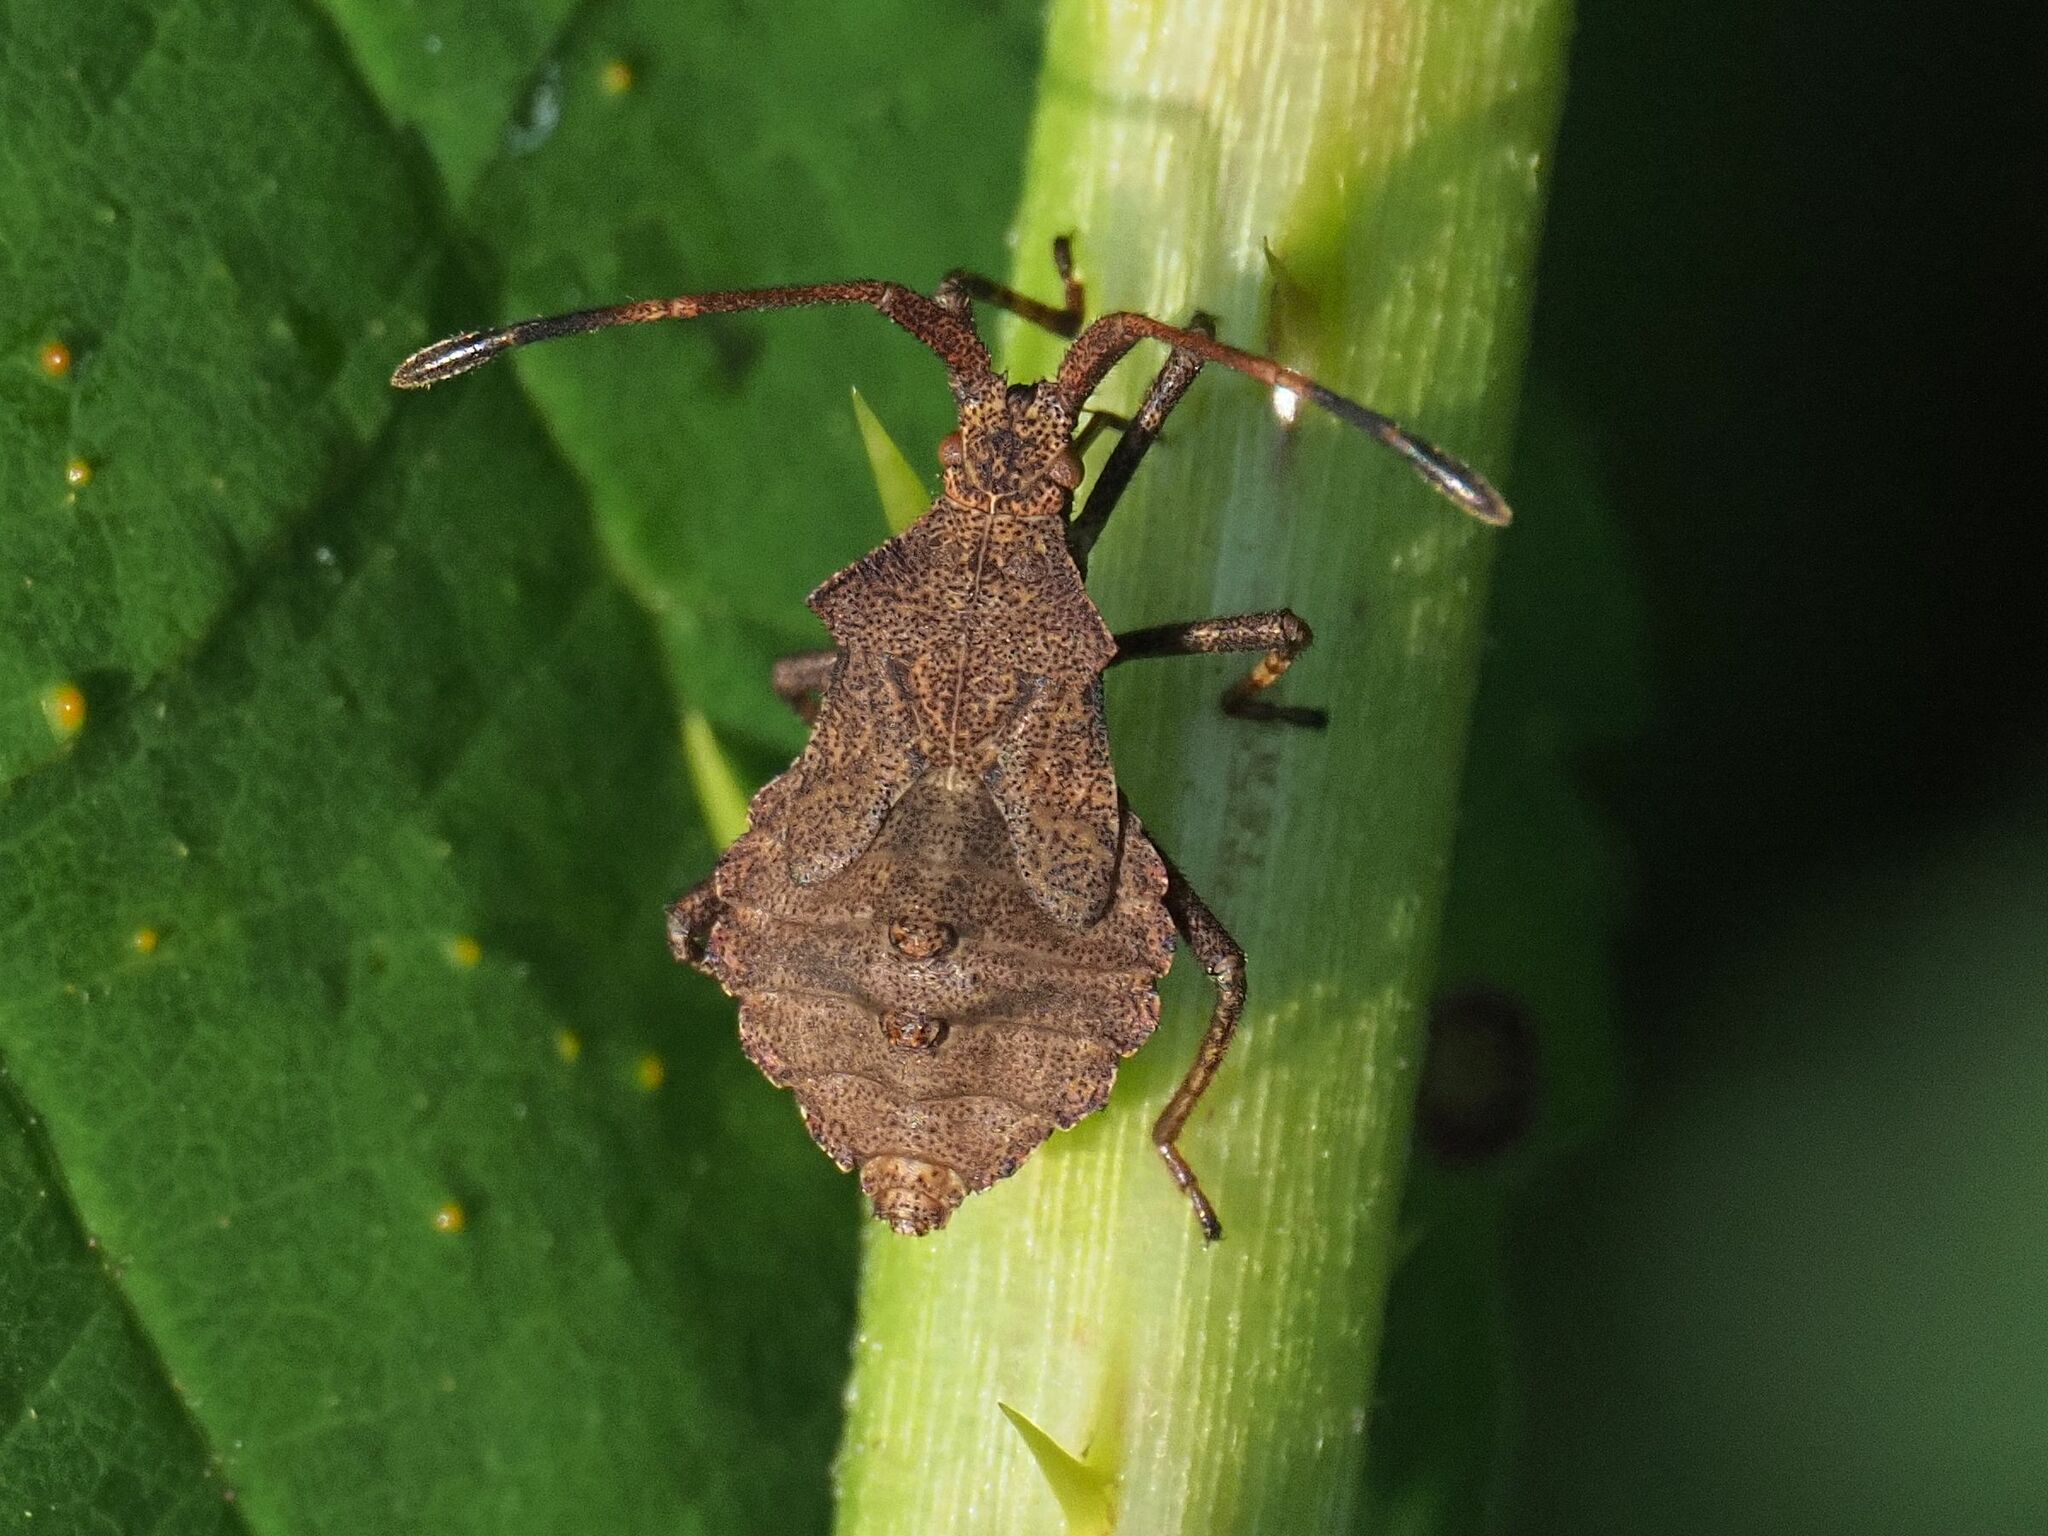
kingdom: Animalia
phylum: Arthropoda
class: Insecta
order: Hemiptera
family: Coreidae
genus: Coreus
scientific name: Coreus marginatus
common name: Dock bug
